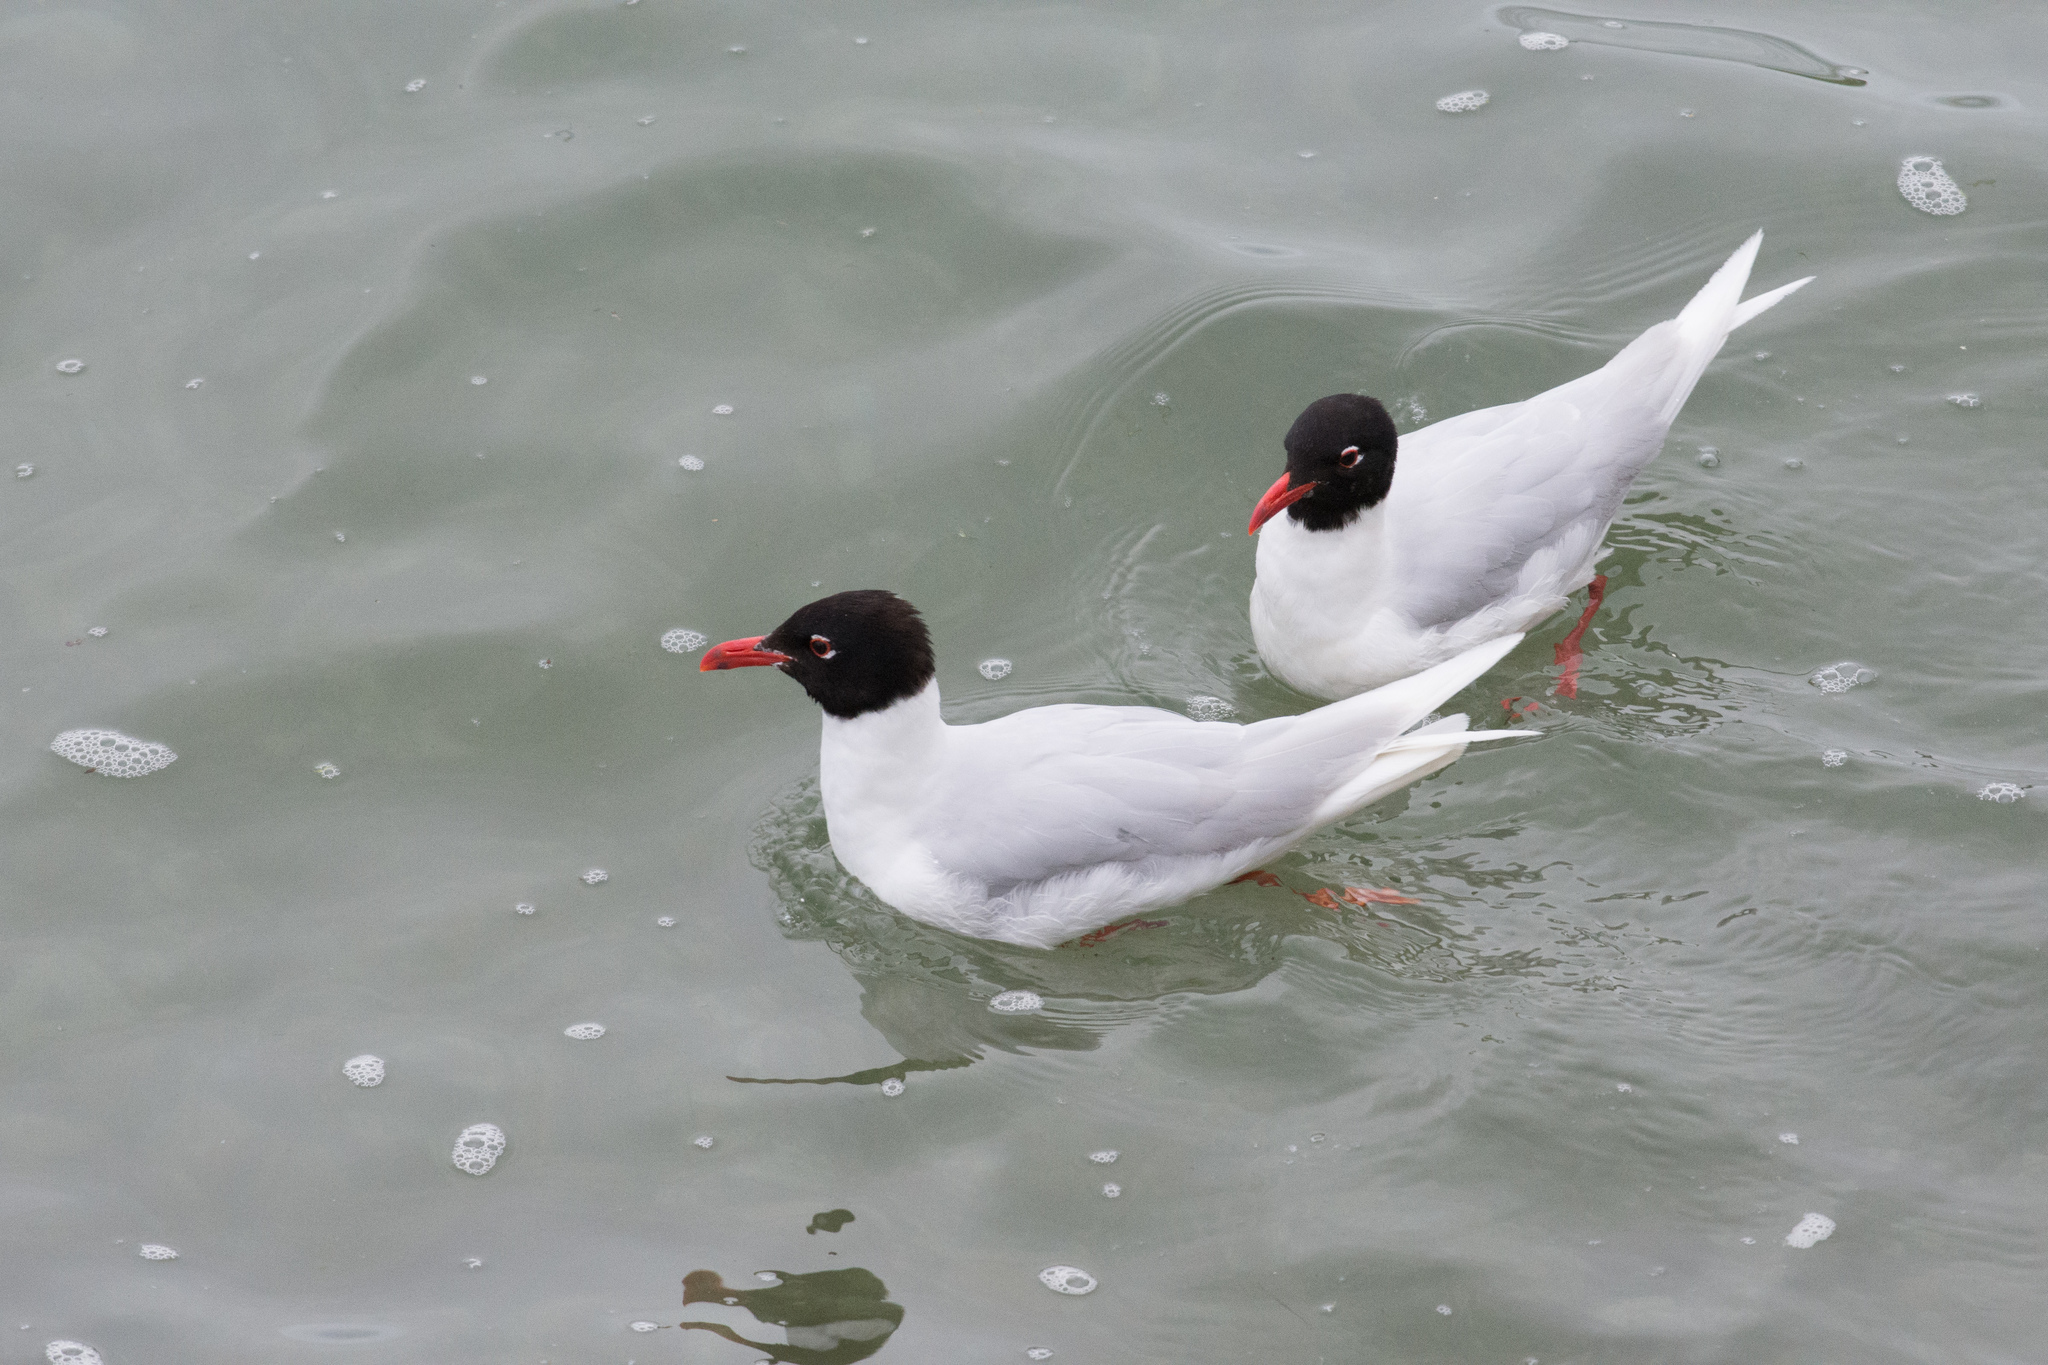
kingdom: Animalia
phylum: Chordata
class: Aves
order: Charadriiformes
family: Laridae
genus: Ichthyaetus
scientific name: Ichthyaetus melanocephalus
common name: Mediterranean gull
